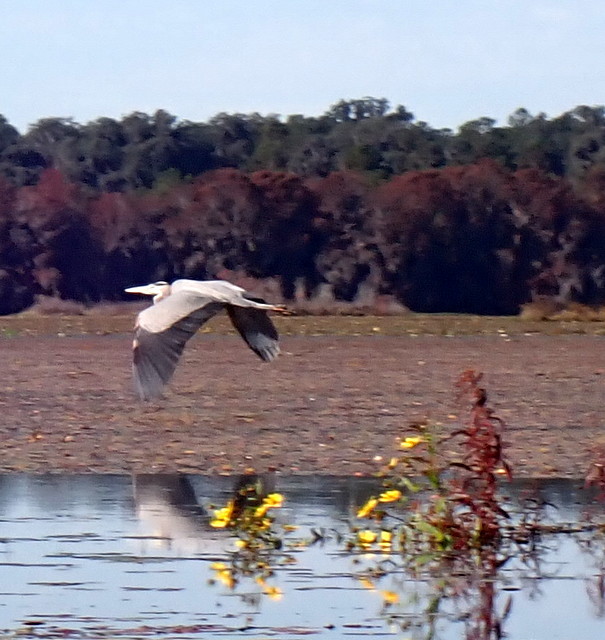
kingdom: Animalia
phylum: Chordata
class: Aves
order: Pelecaniformes
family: Ardeidae
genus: Ardea
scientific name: Ardea herodias
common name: Great blue heron
